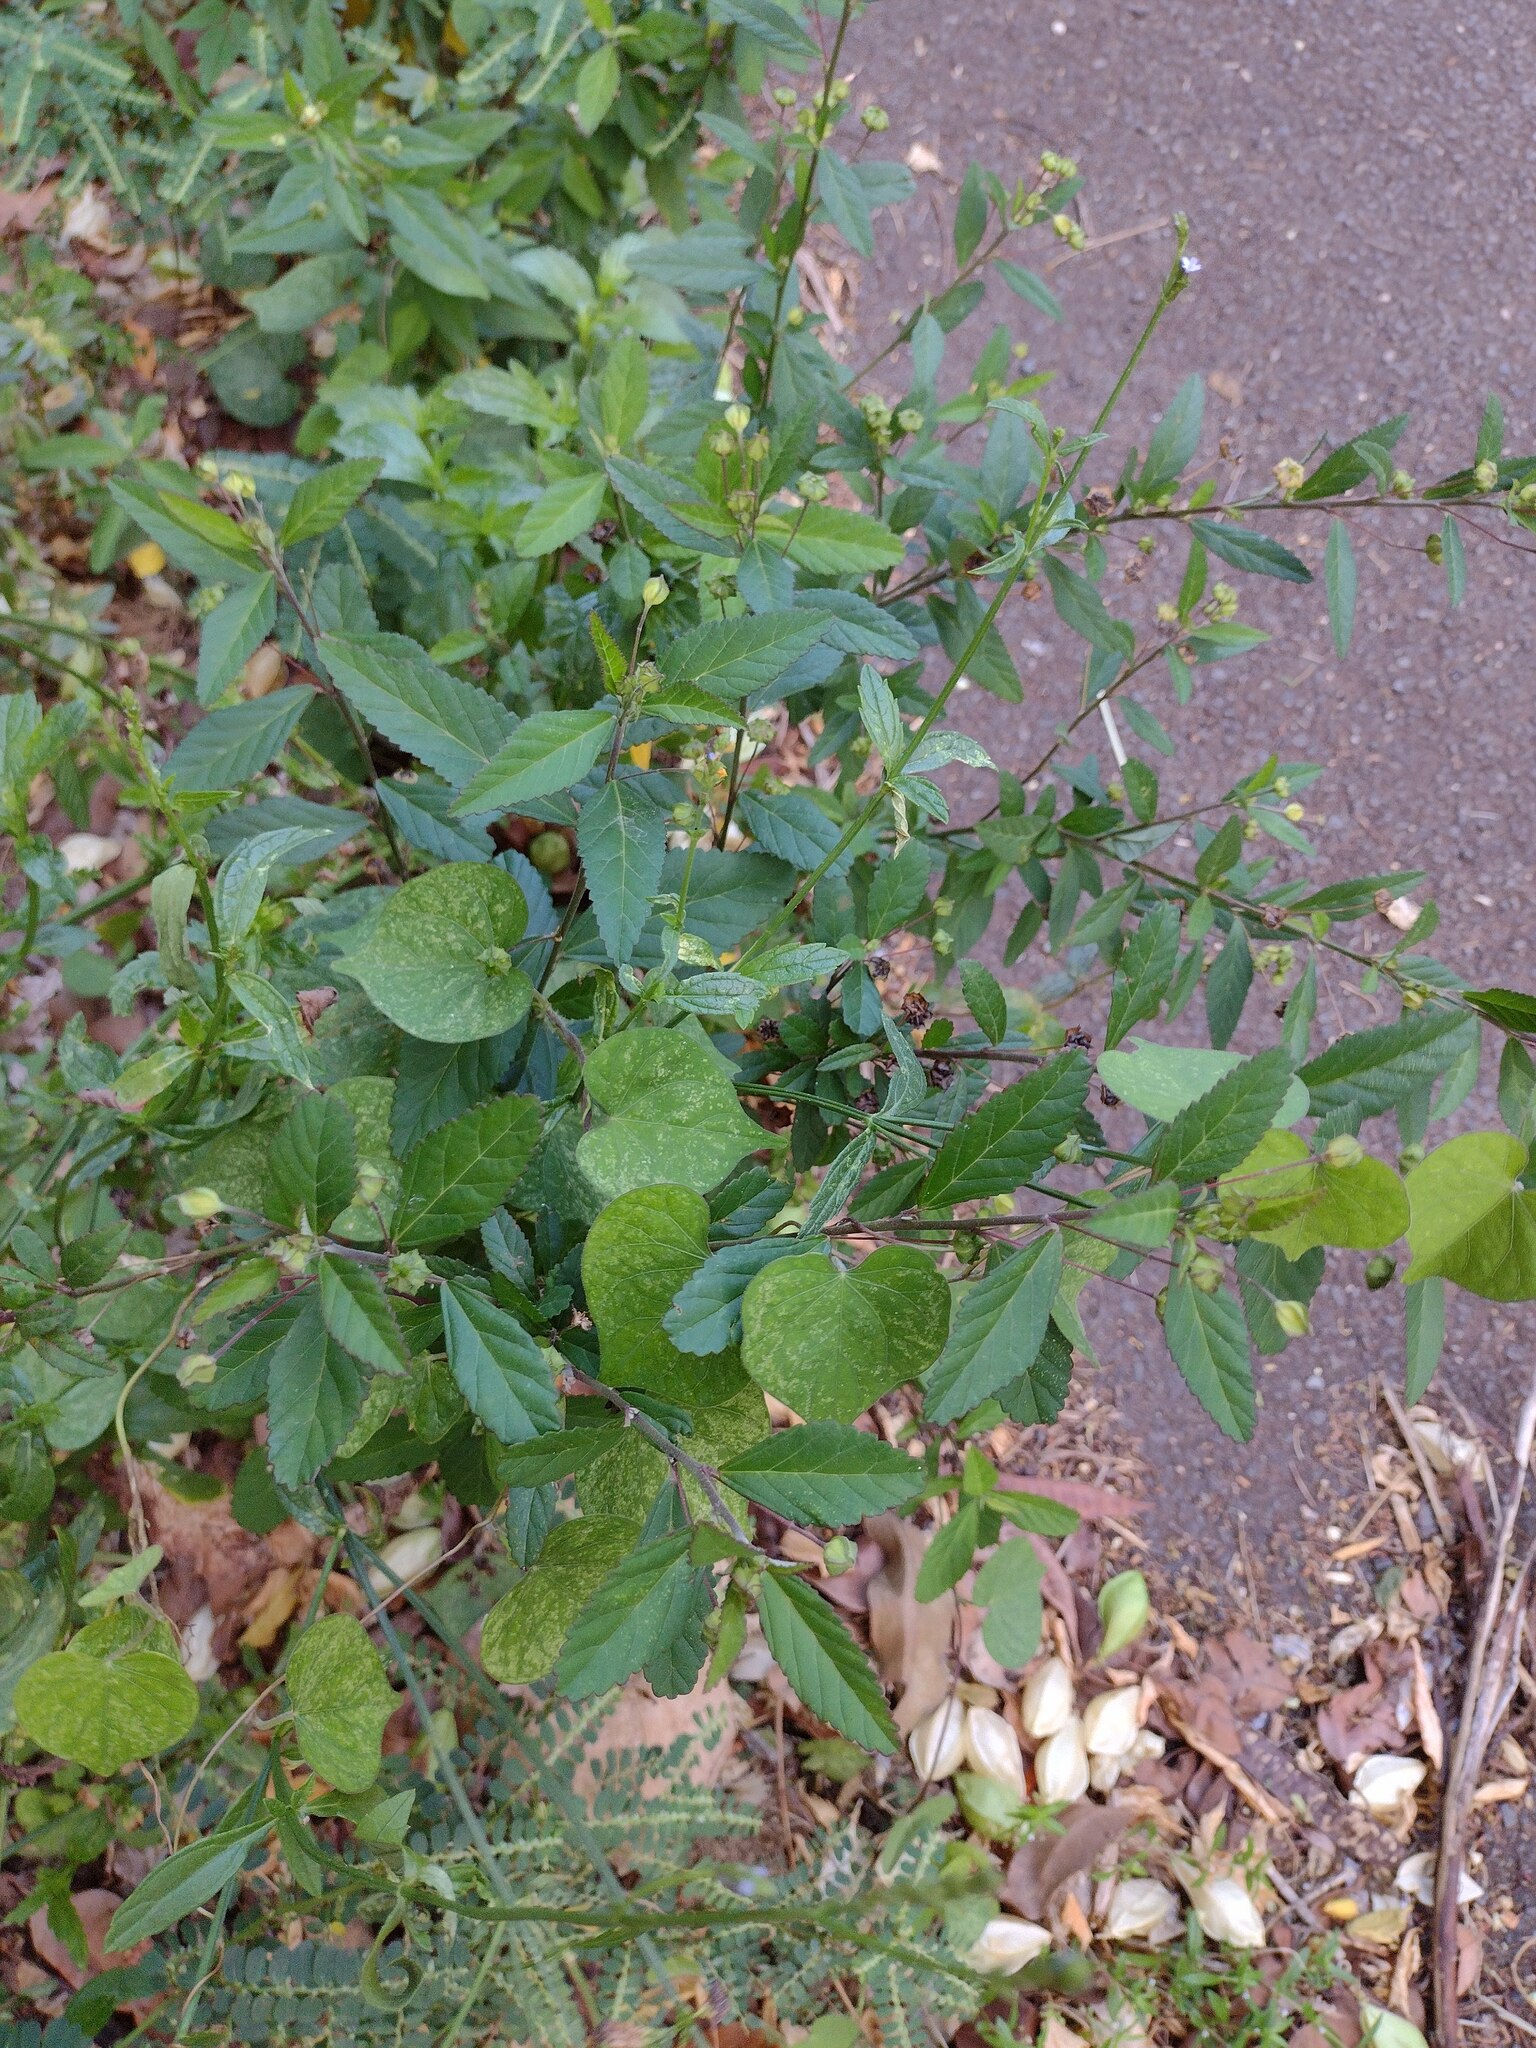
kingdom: Plantae
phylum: Tracheophyta
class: Magnoliopsida
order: Malvales
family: Malvaceae
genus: Sida
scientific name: Sida rhombifolia
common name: Queensland-hemp
